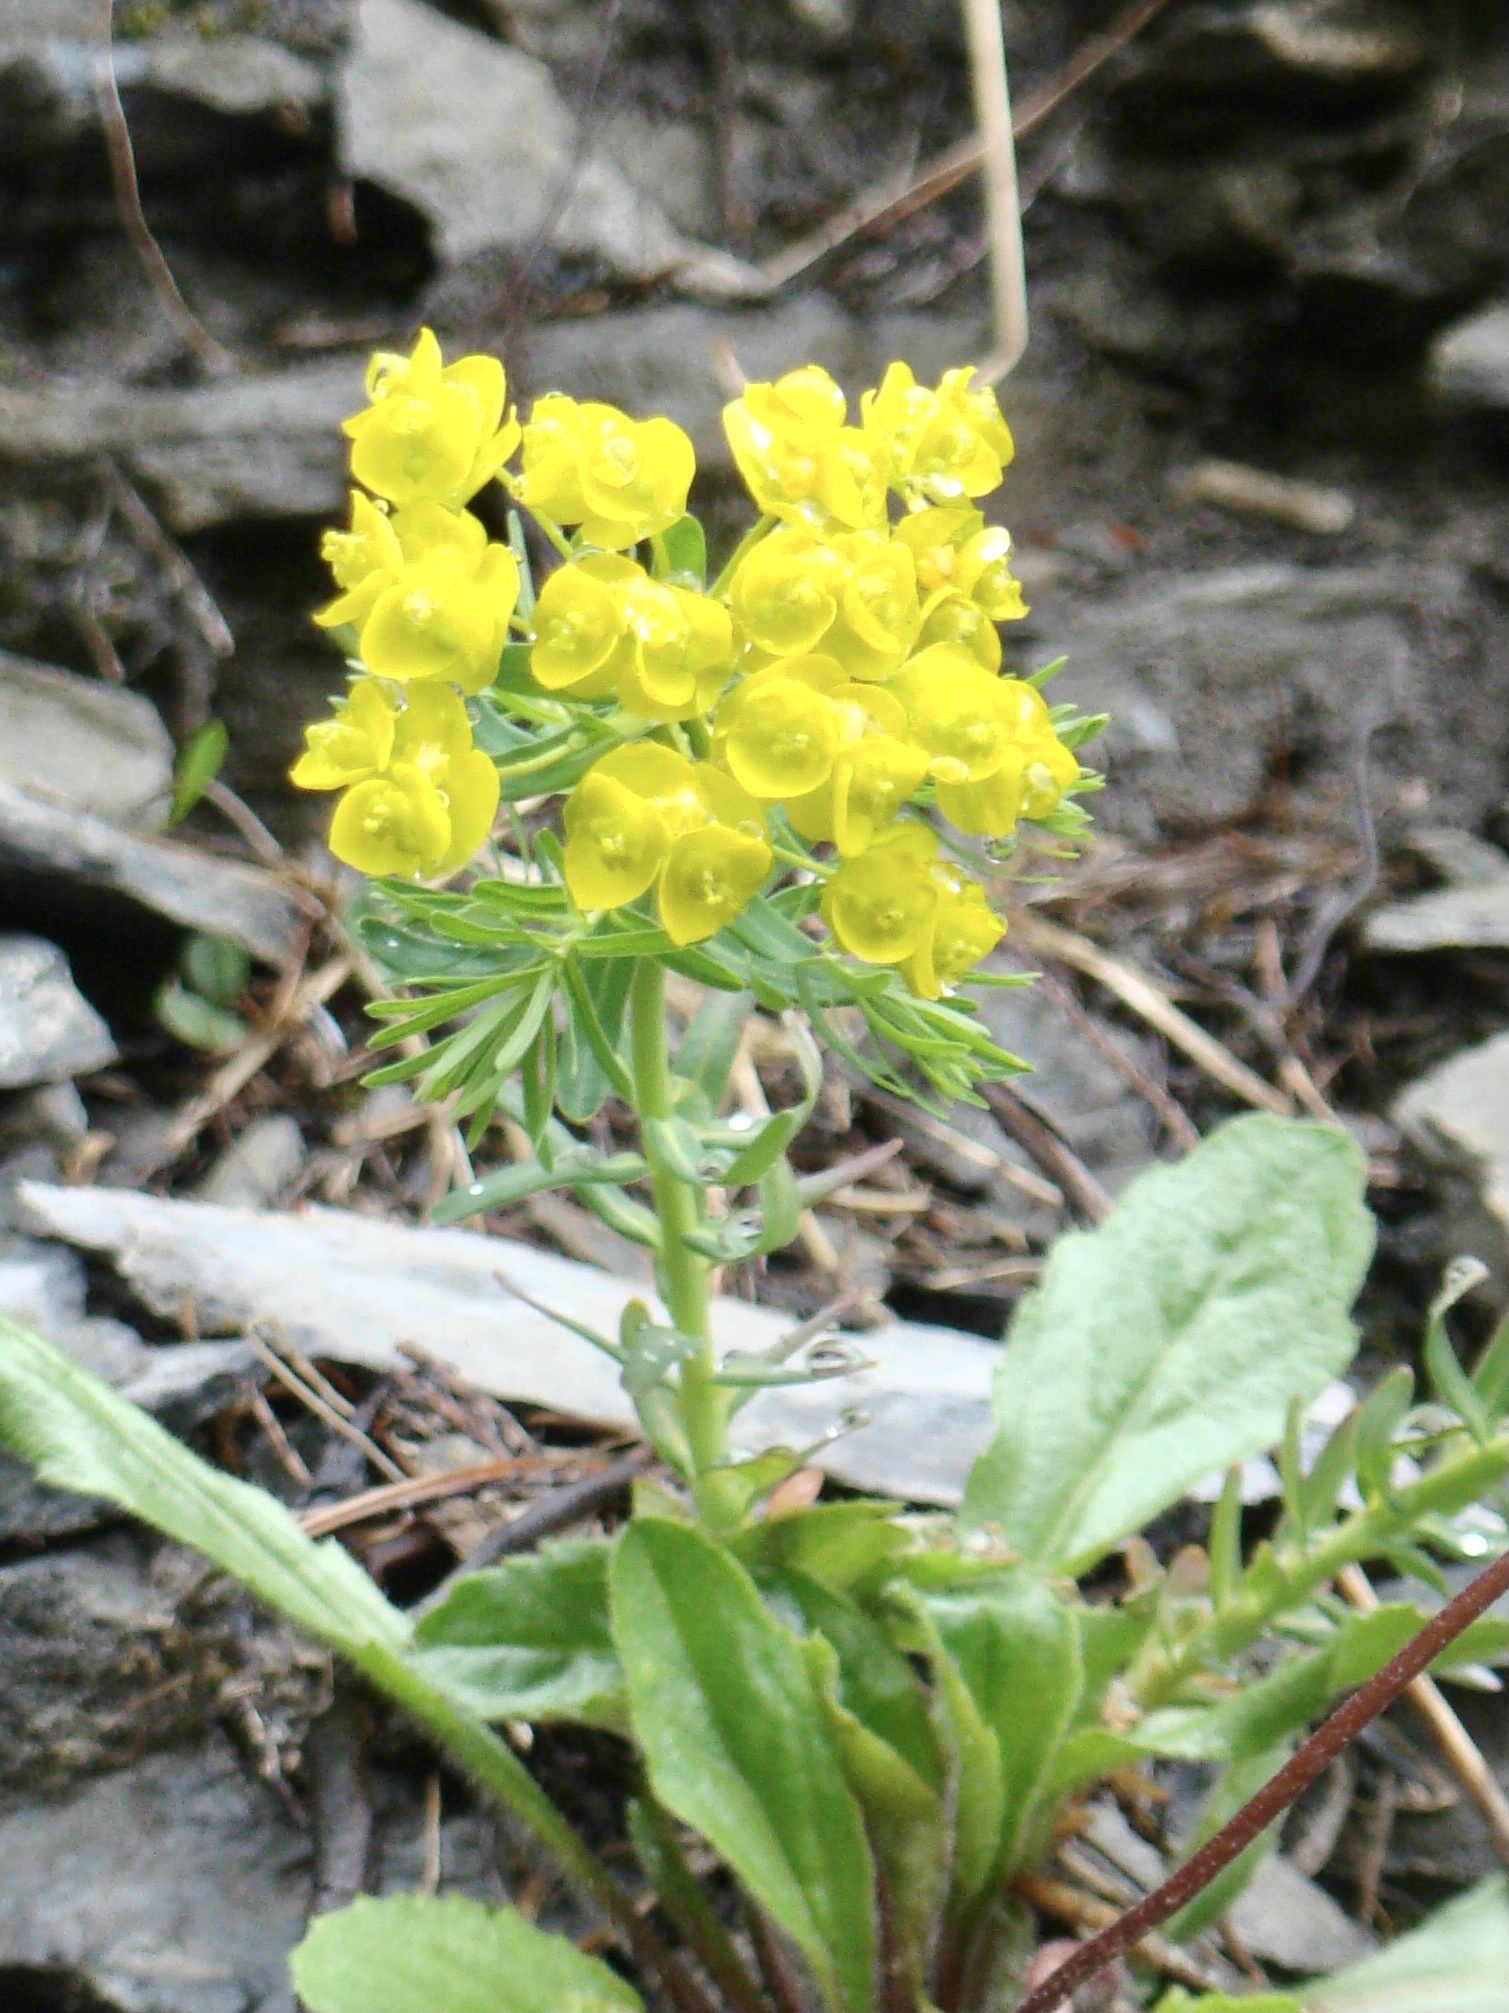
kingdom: Plantae
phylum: Tracheophyta
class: Magnoliopsida
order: Malpighiales
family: Euphorbiaceae
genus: Euphorbia
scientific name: Euphorbia cyparissias
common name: Cypress spurge
